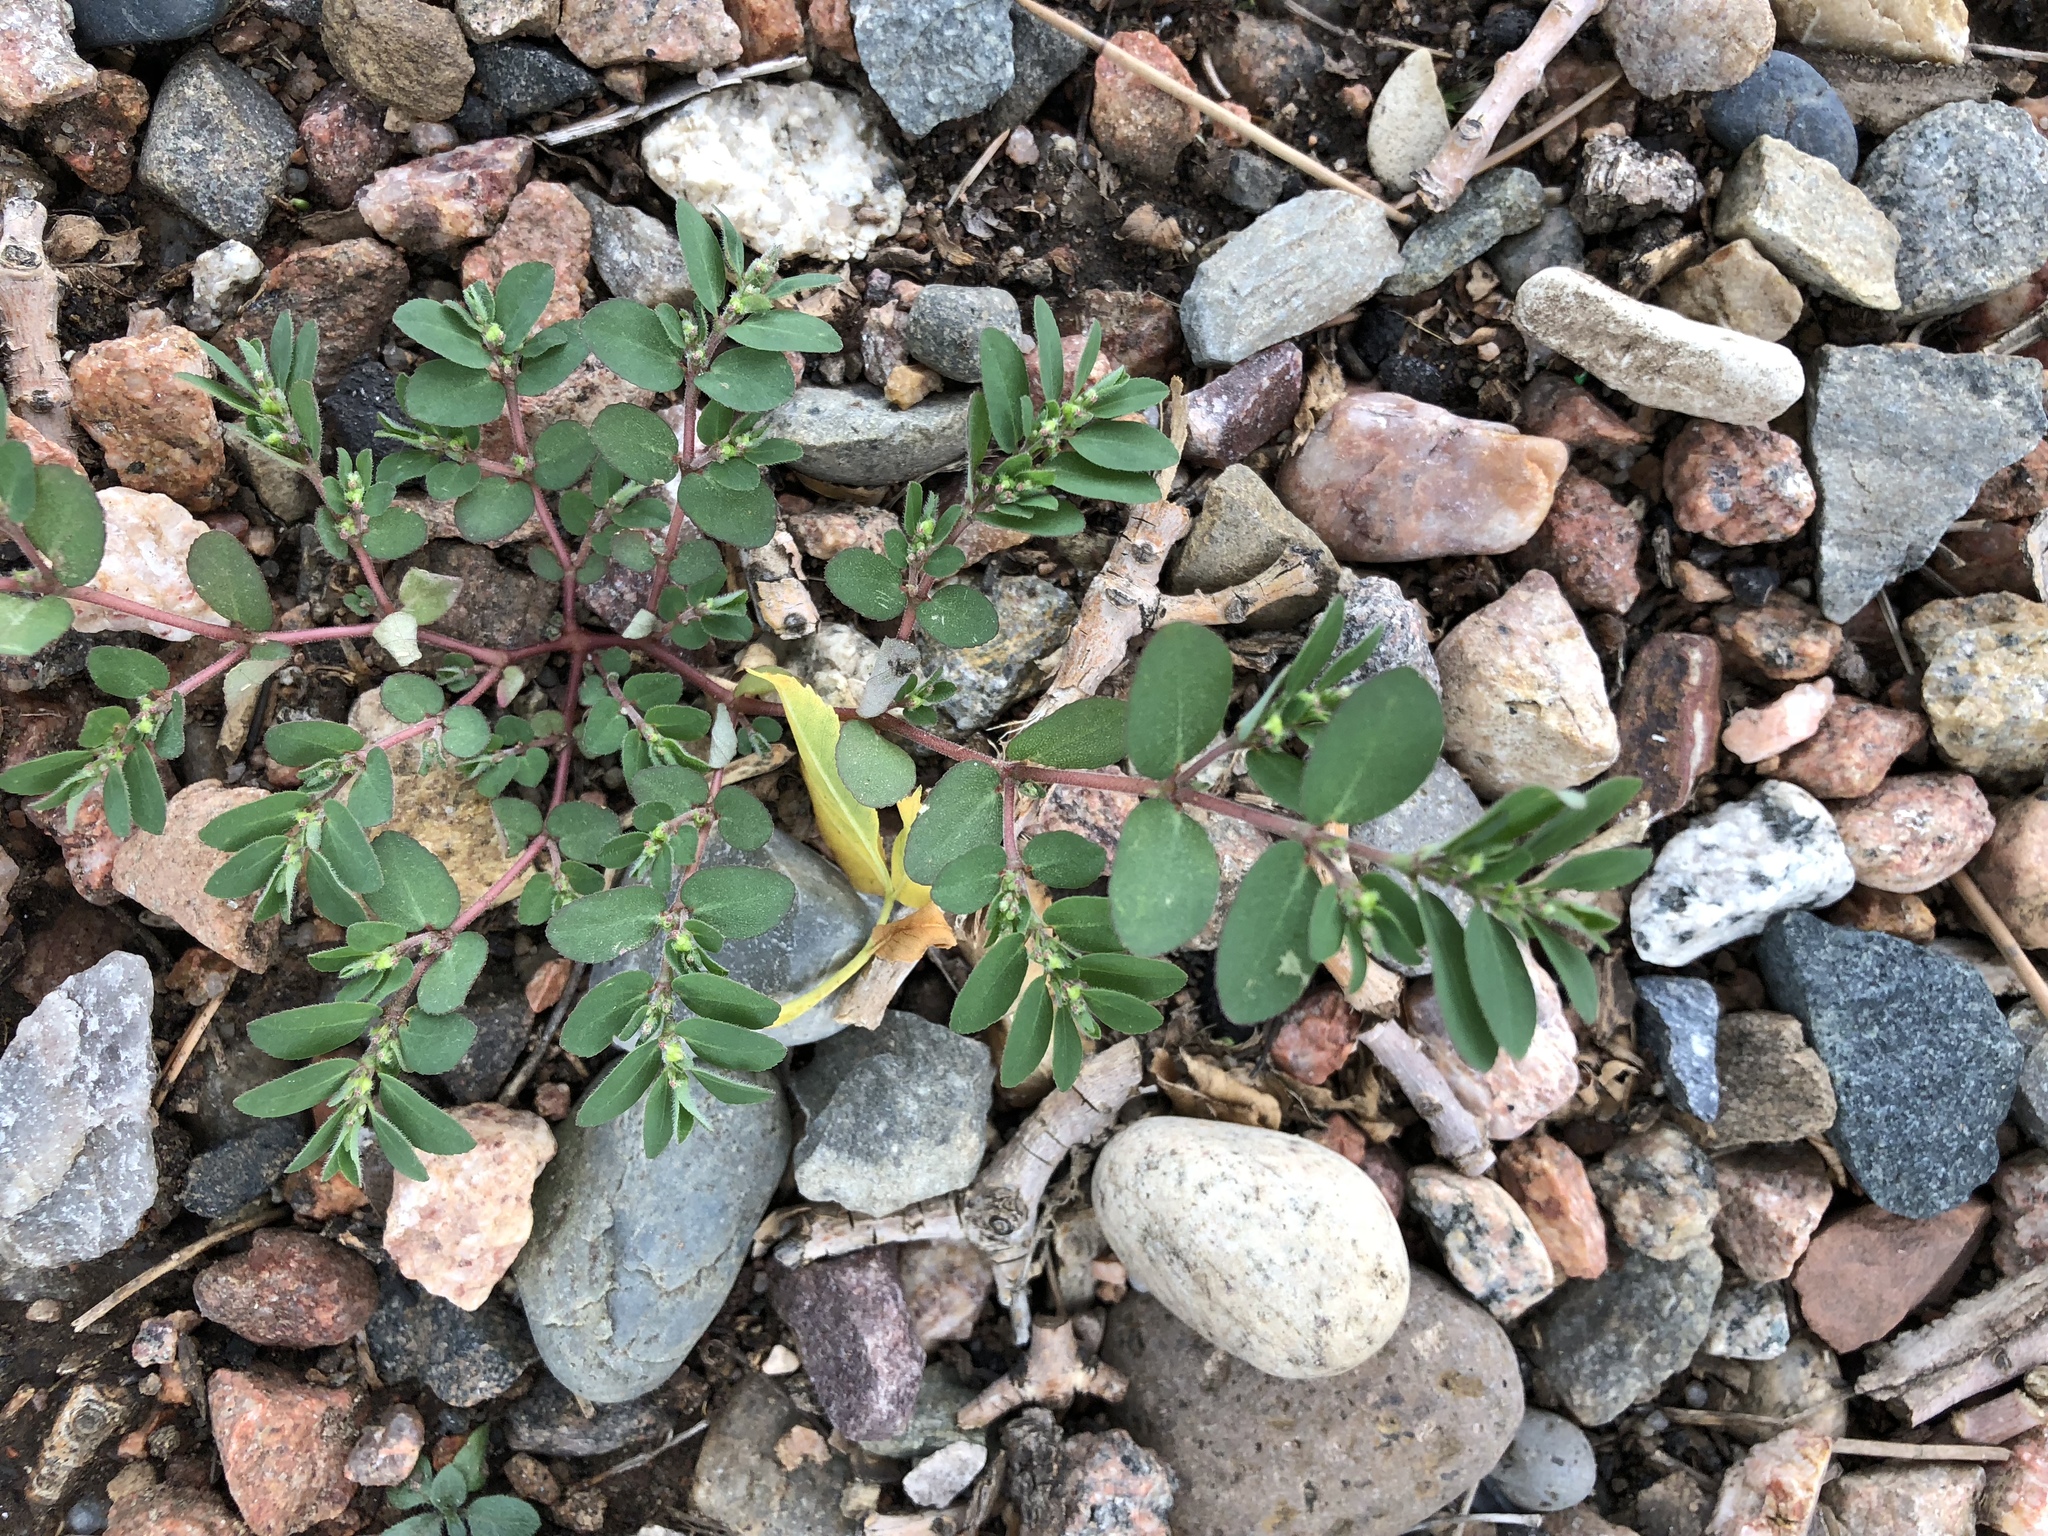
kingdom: Plantae
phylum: Tracheophyta
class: Magnoliopsida
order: Malpighiales
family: Euphorbiaceae
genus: Euphorbia
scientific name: Euphorbia prostrata
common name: Prostrate sandmat
